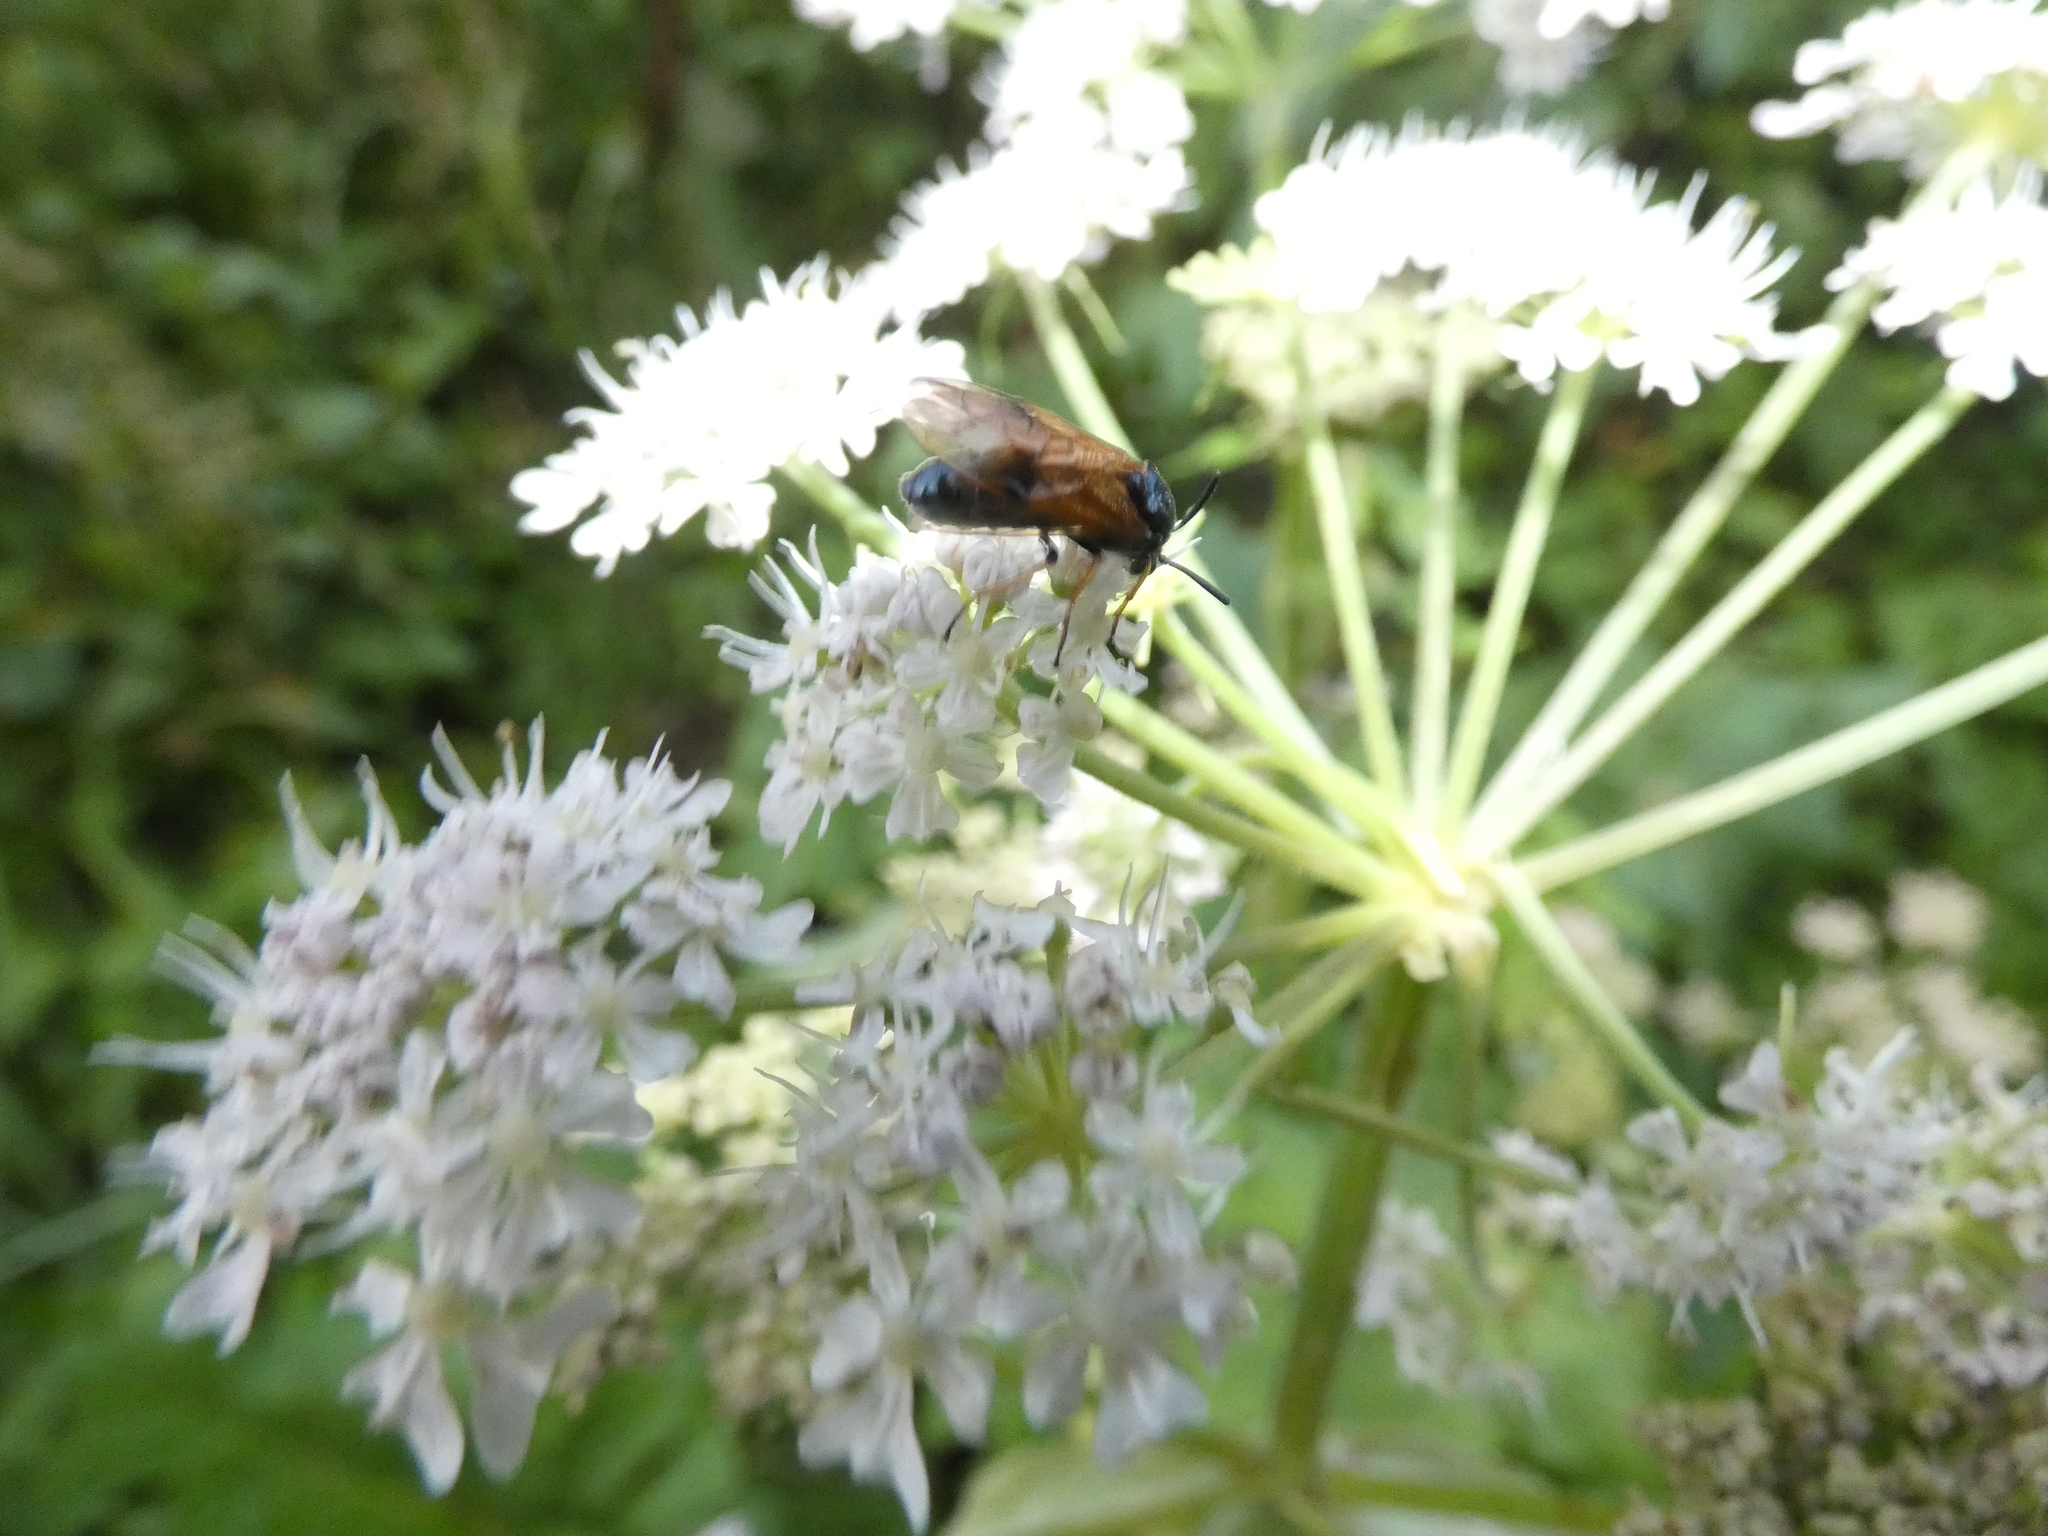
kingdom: Animalia
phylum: Arthropoda
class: Insecta
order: Hymenoptera
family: Argidae
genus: Arge
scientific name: Arge ustulata
